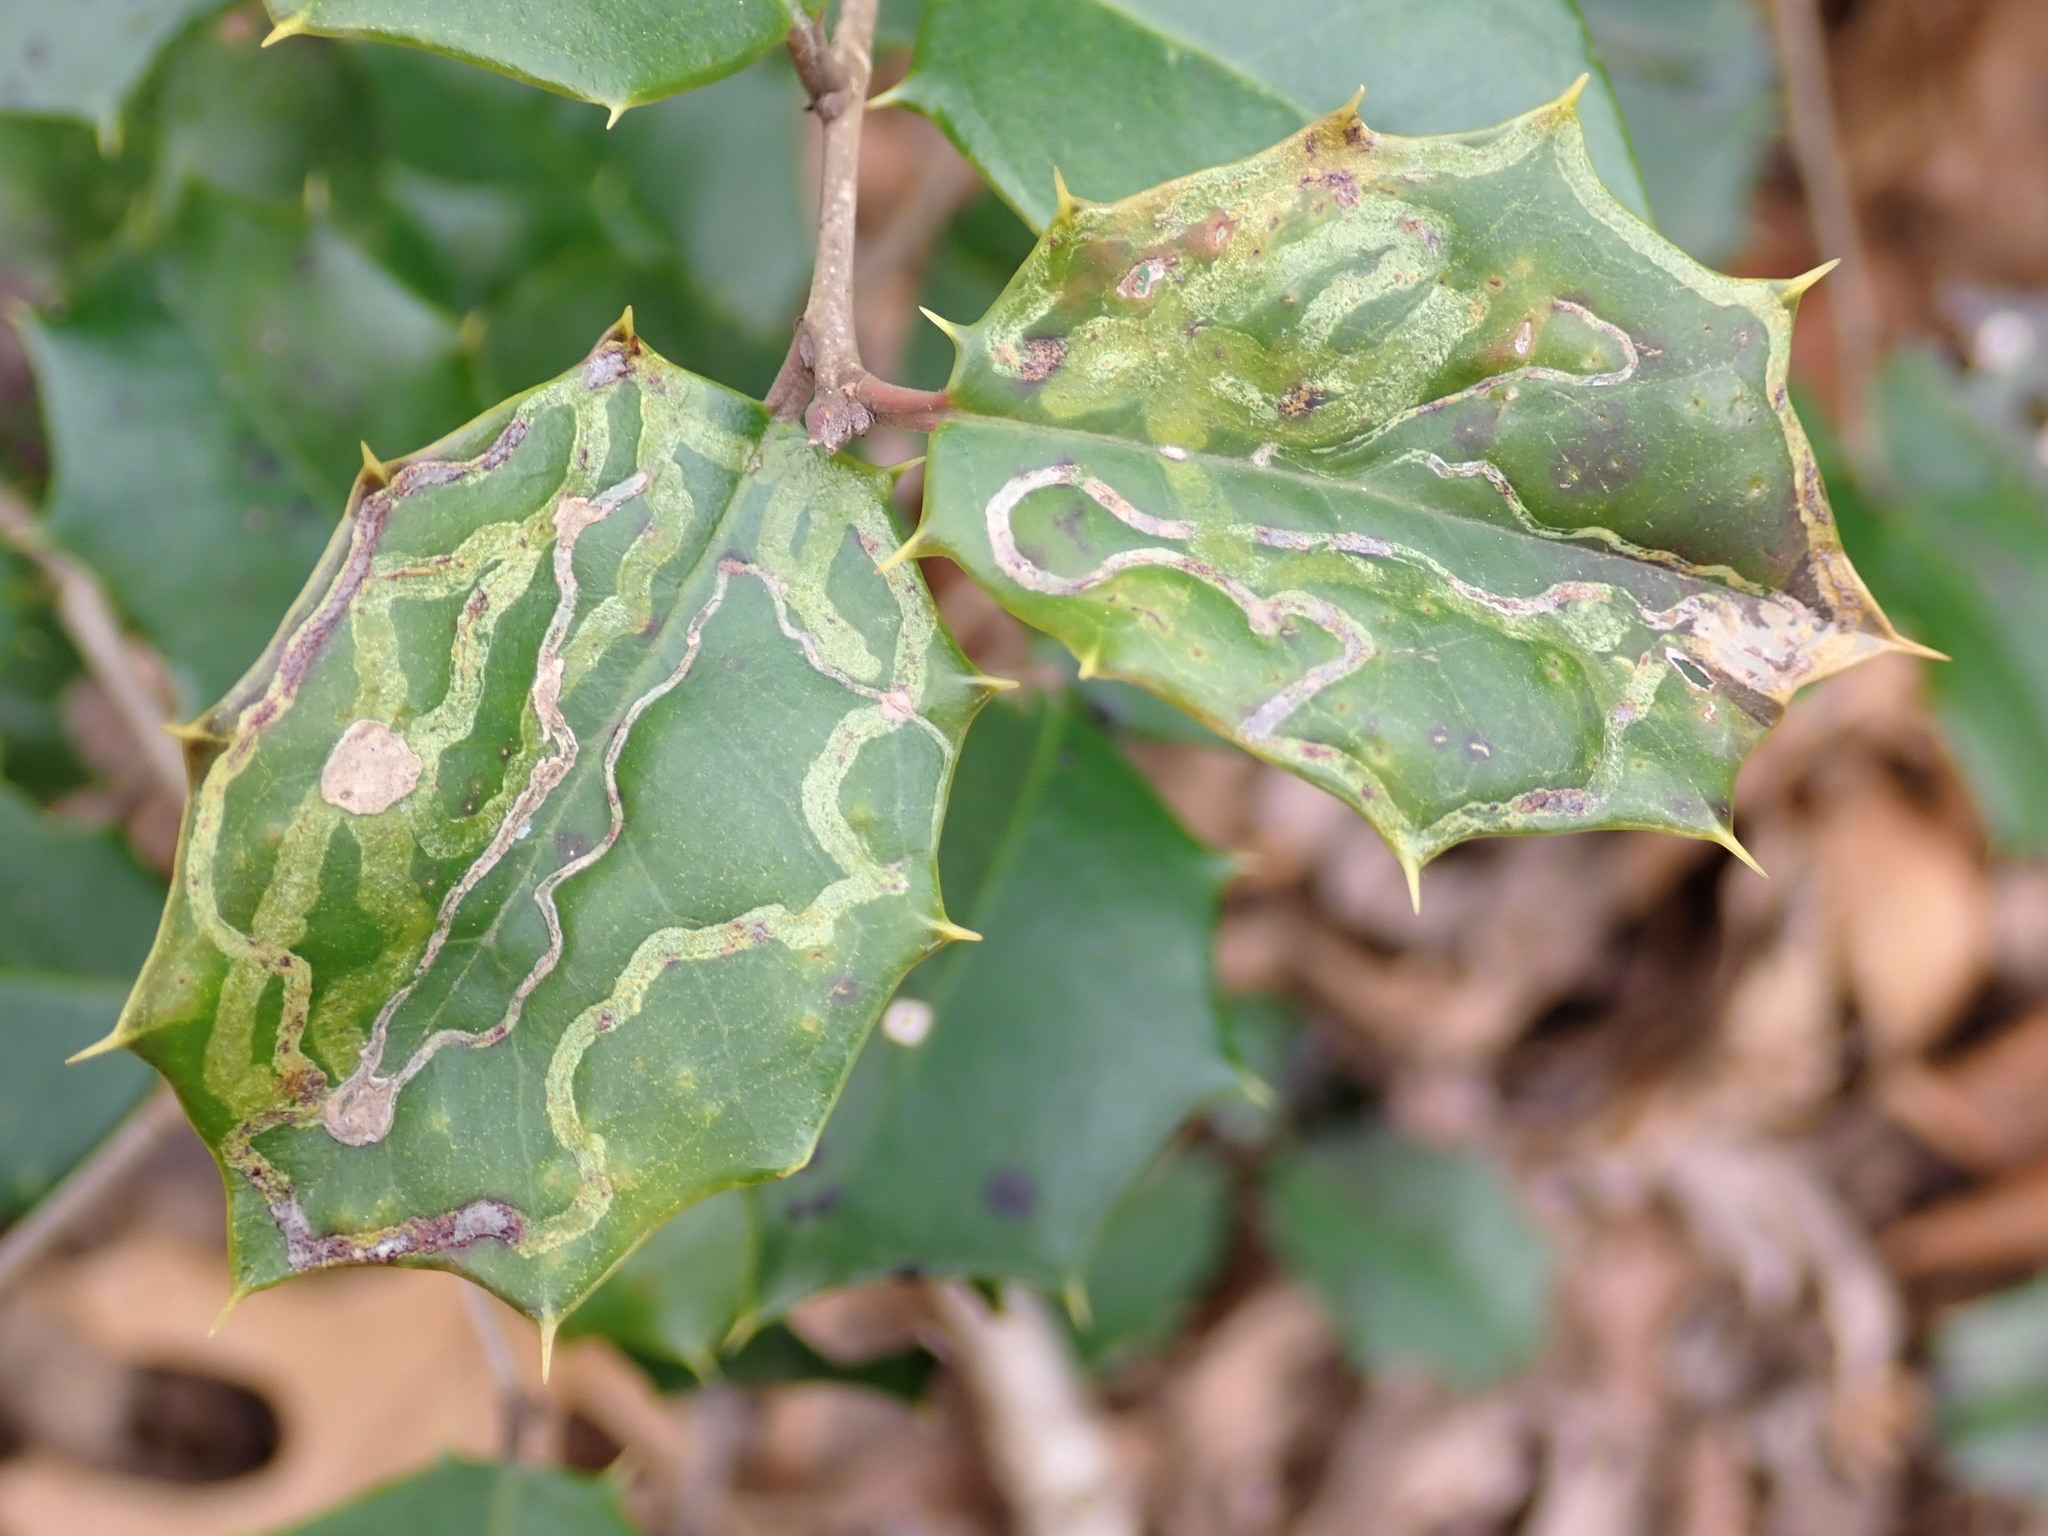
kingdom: Animalia
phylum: Arthropoda
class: Insecta
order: Diptera
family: Agromyzidae
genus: Phytomyza
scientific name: Phytomyza opacae
